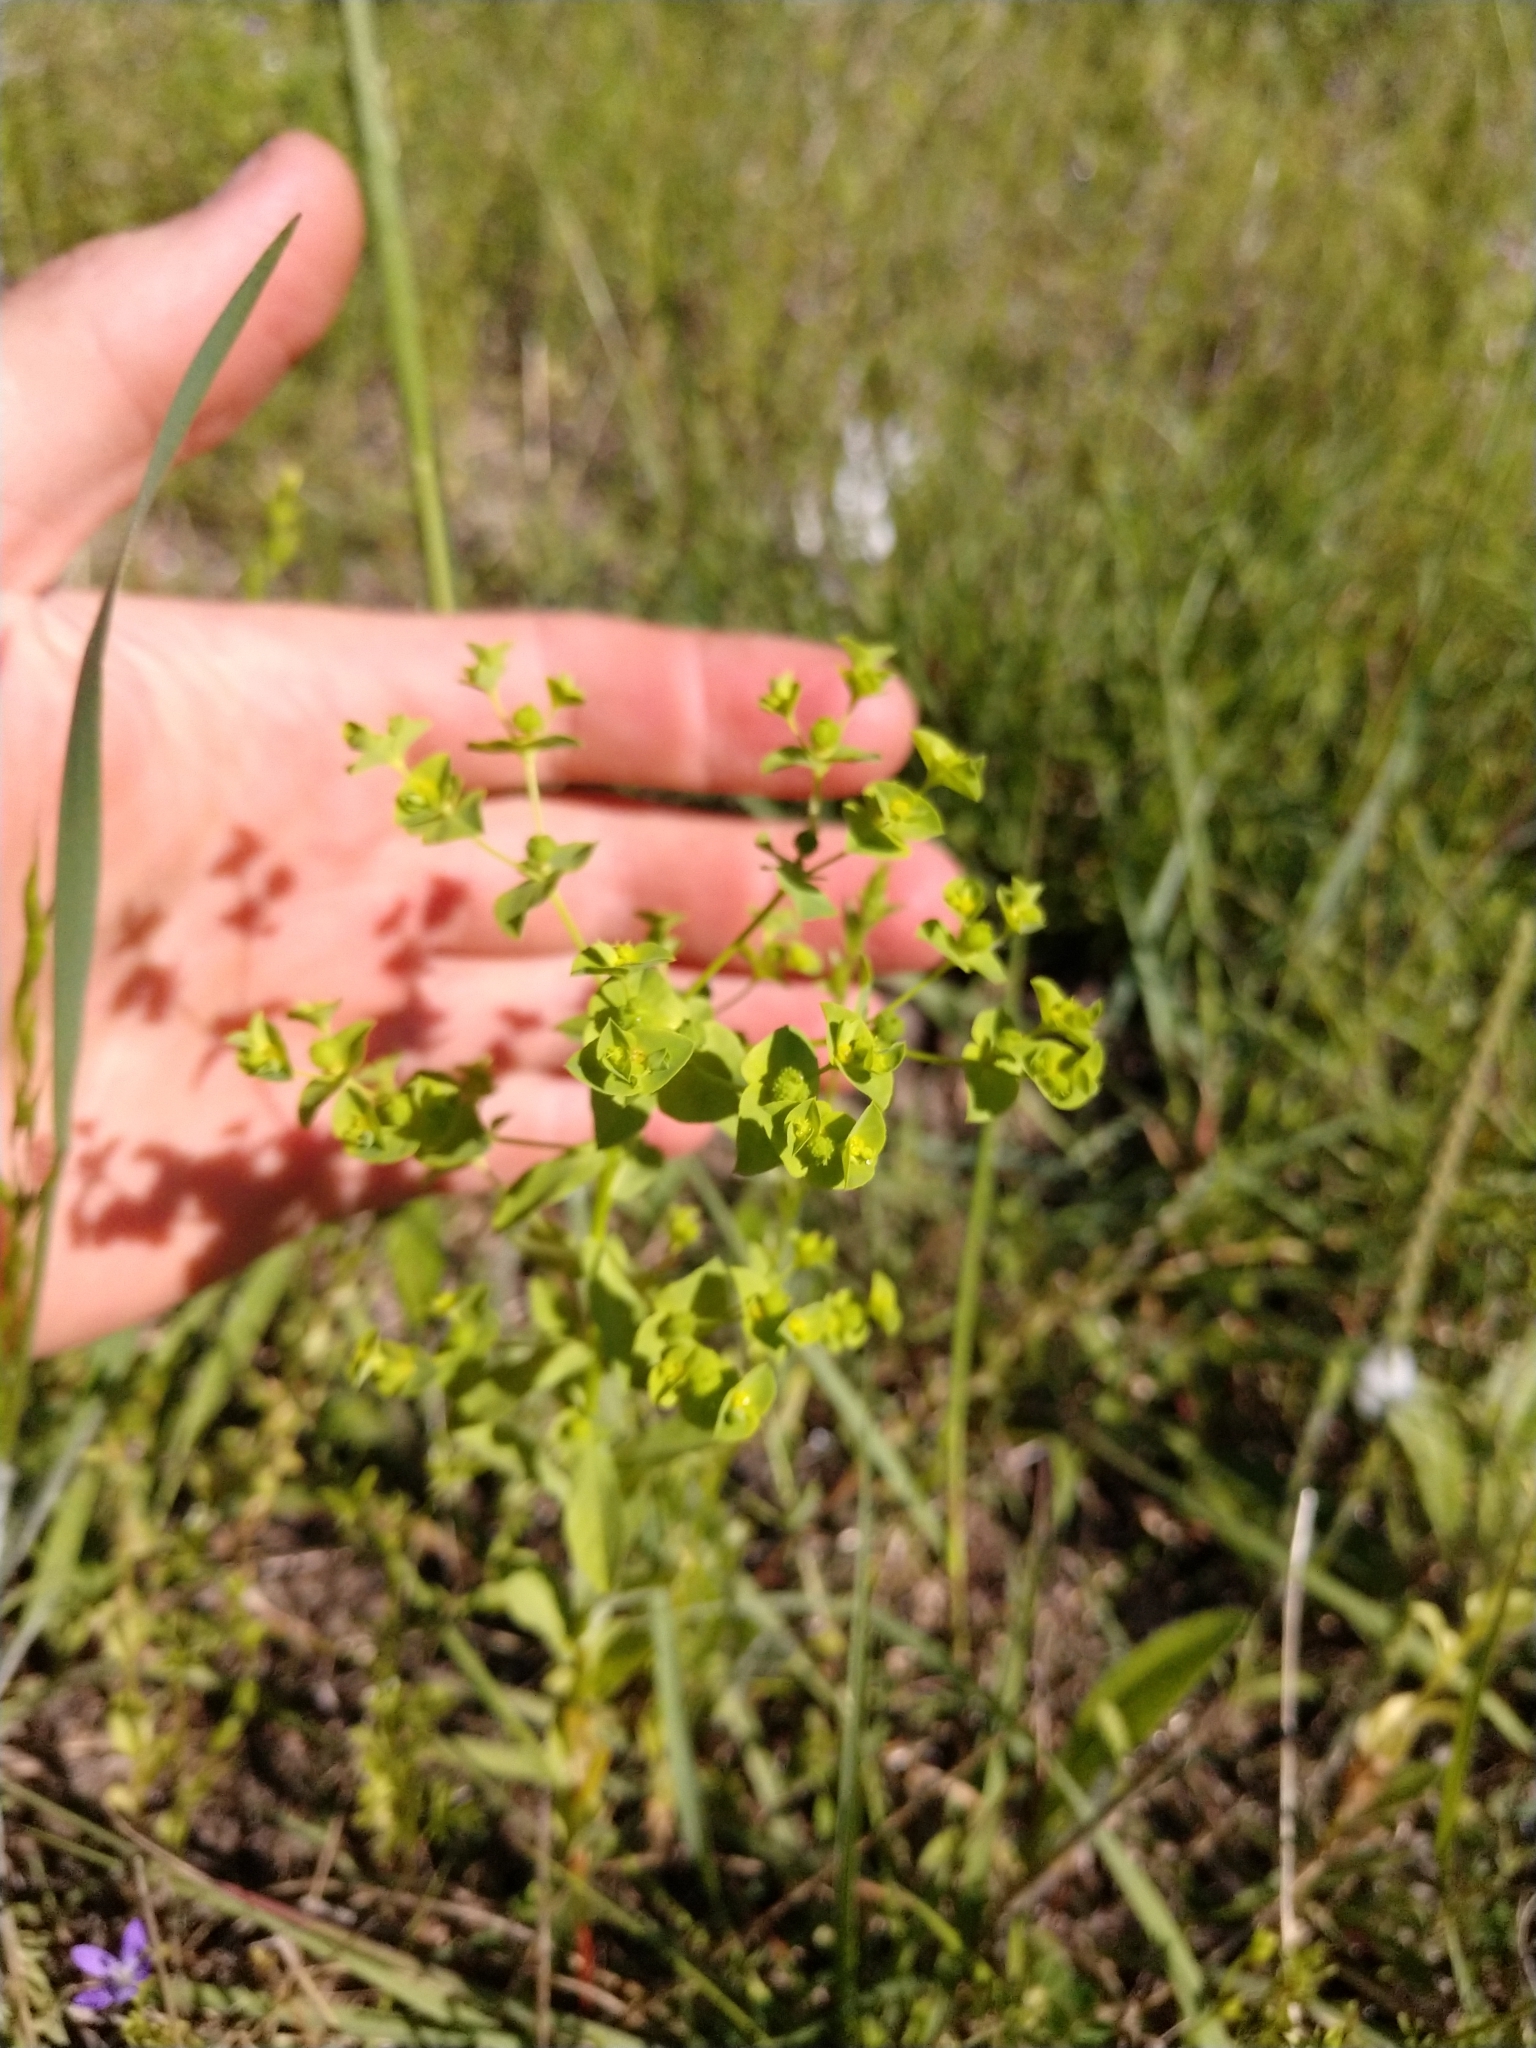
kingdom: Plantae
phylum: Tracheophyta
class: Magnoliopsida
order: Malpighiales
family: Euphorbiaceae
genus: Euphorbia
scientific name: Euphorbia spathulata
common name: Blunt spurge
